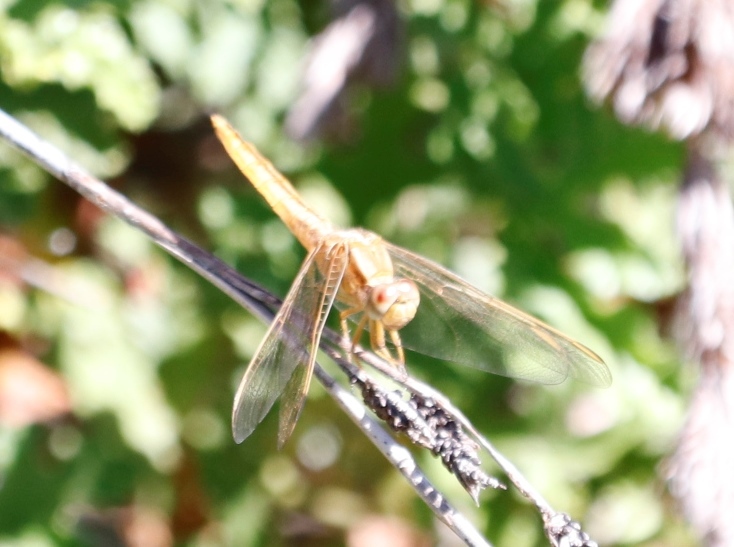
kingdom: Animalia
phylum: Arthropoda
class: Insecta
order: Odonata
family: Libellulidae
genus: Crocothemis
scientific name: Crocothemis erythraea
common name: Scarlet dragonfly
